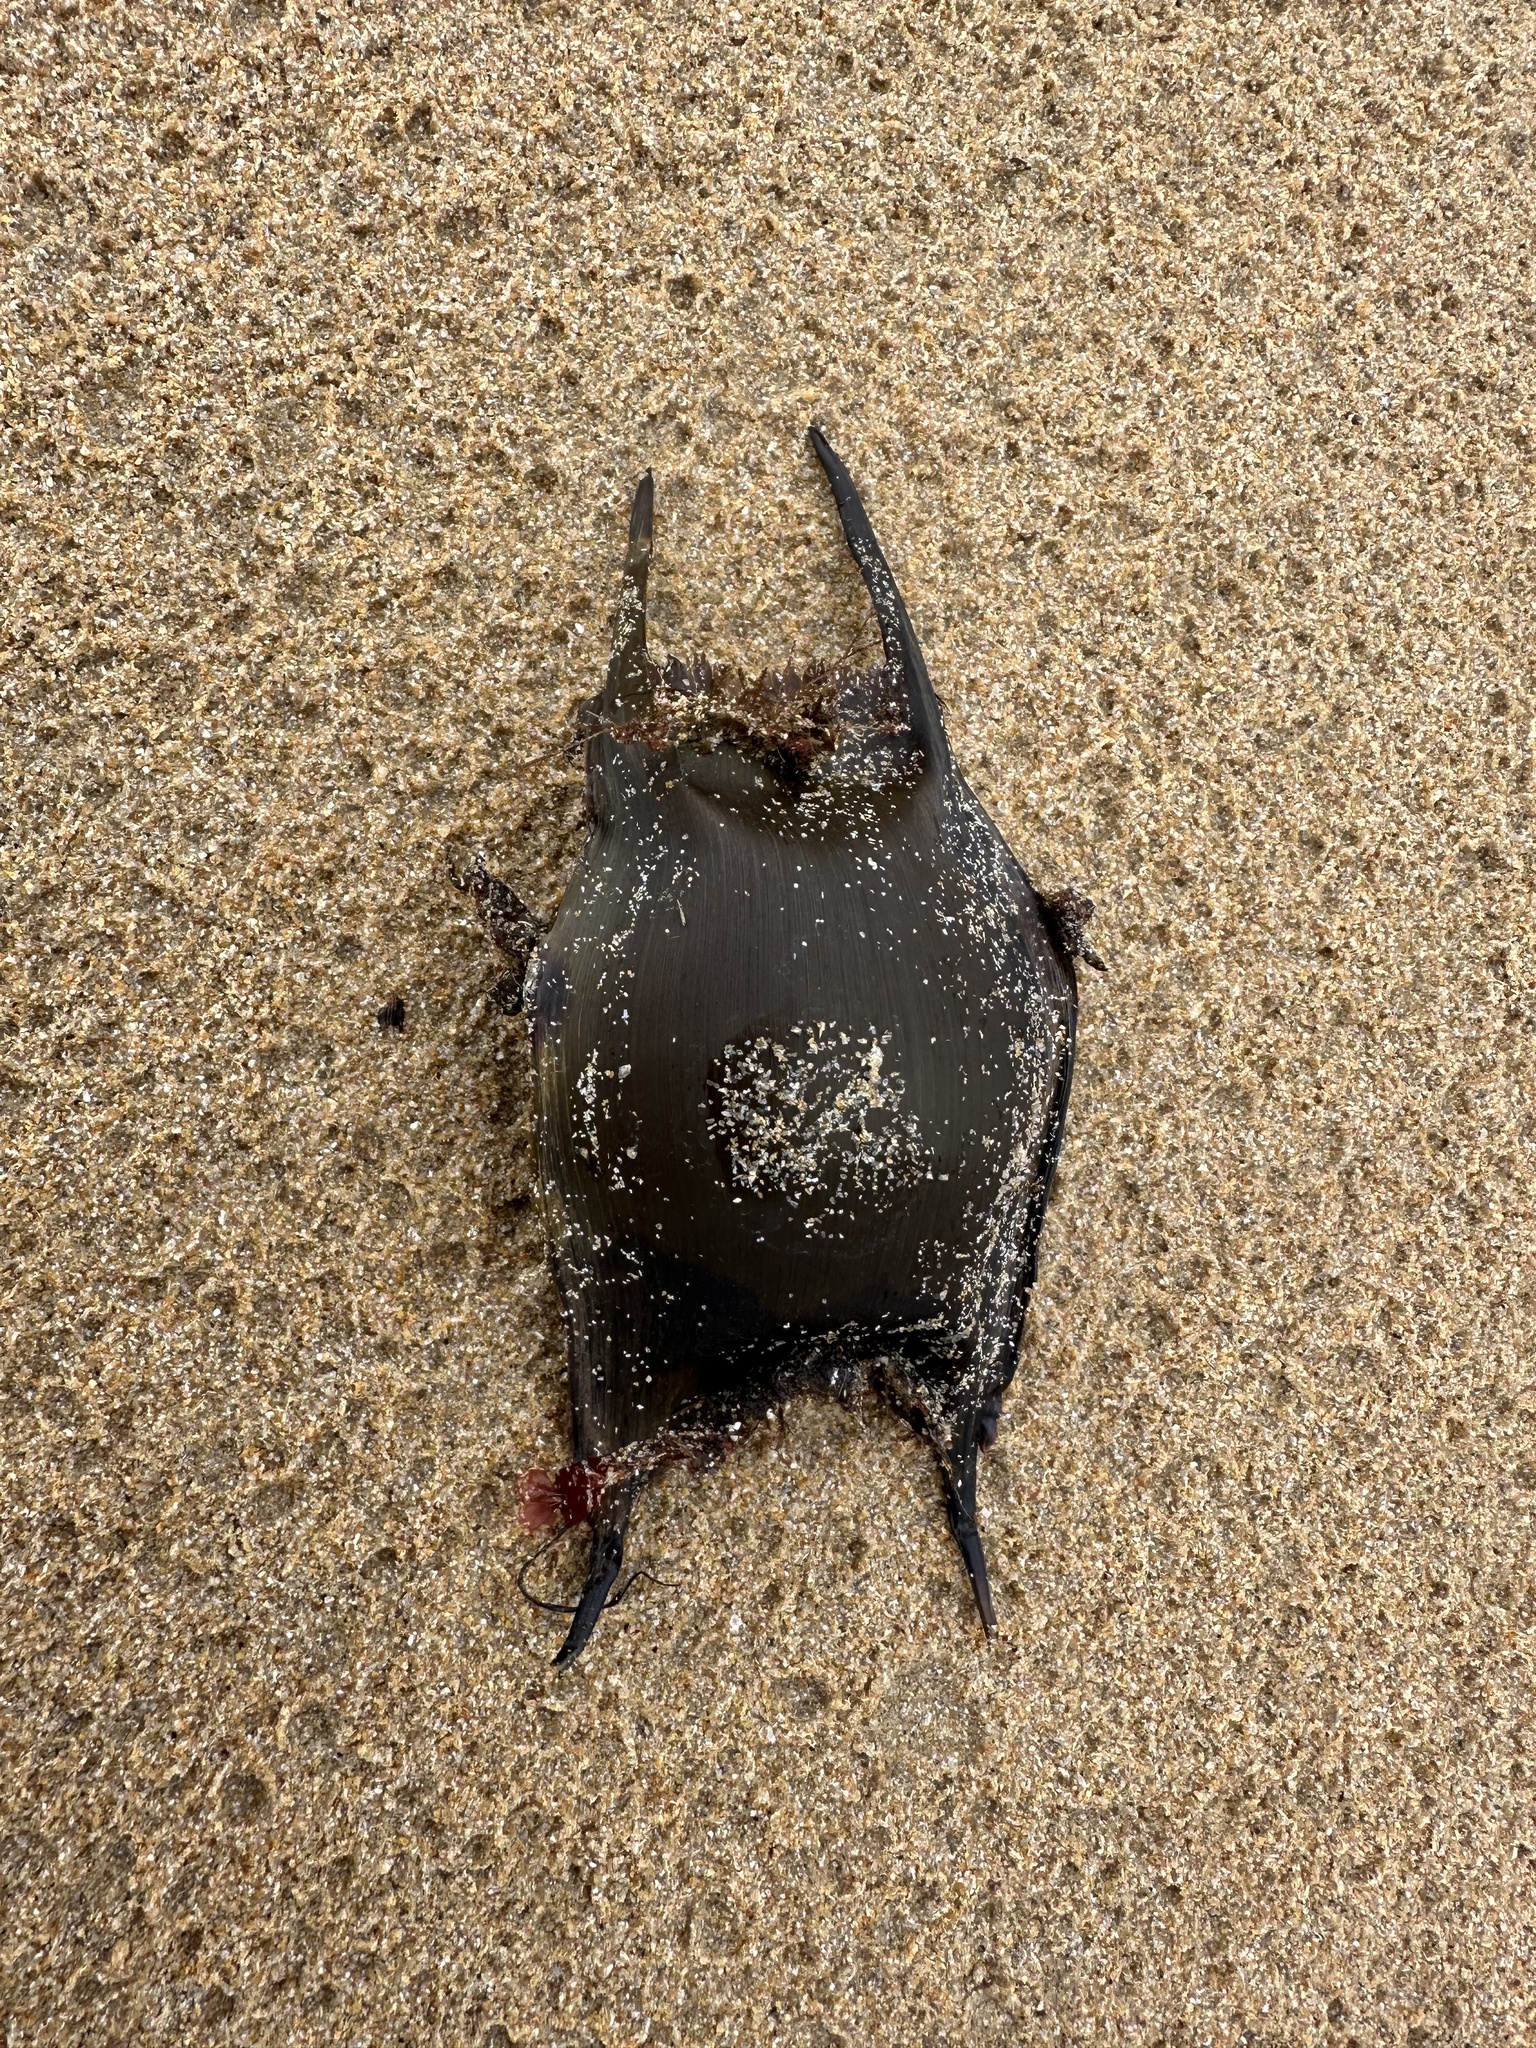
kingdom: Animalia
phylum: Chordata
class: Elasmobranchii
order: Rajiformes
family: Rajidae
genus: Raja
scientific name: Raja clavata
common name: Thornback ray
